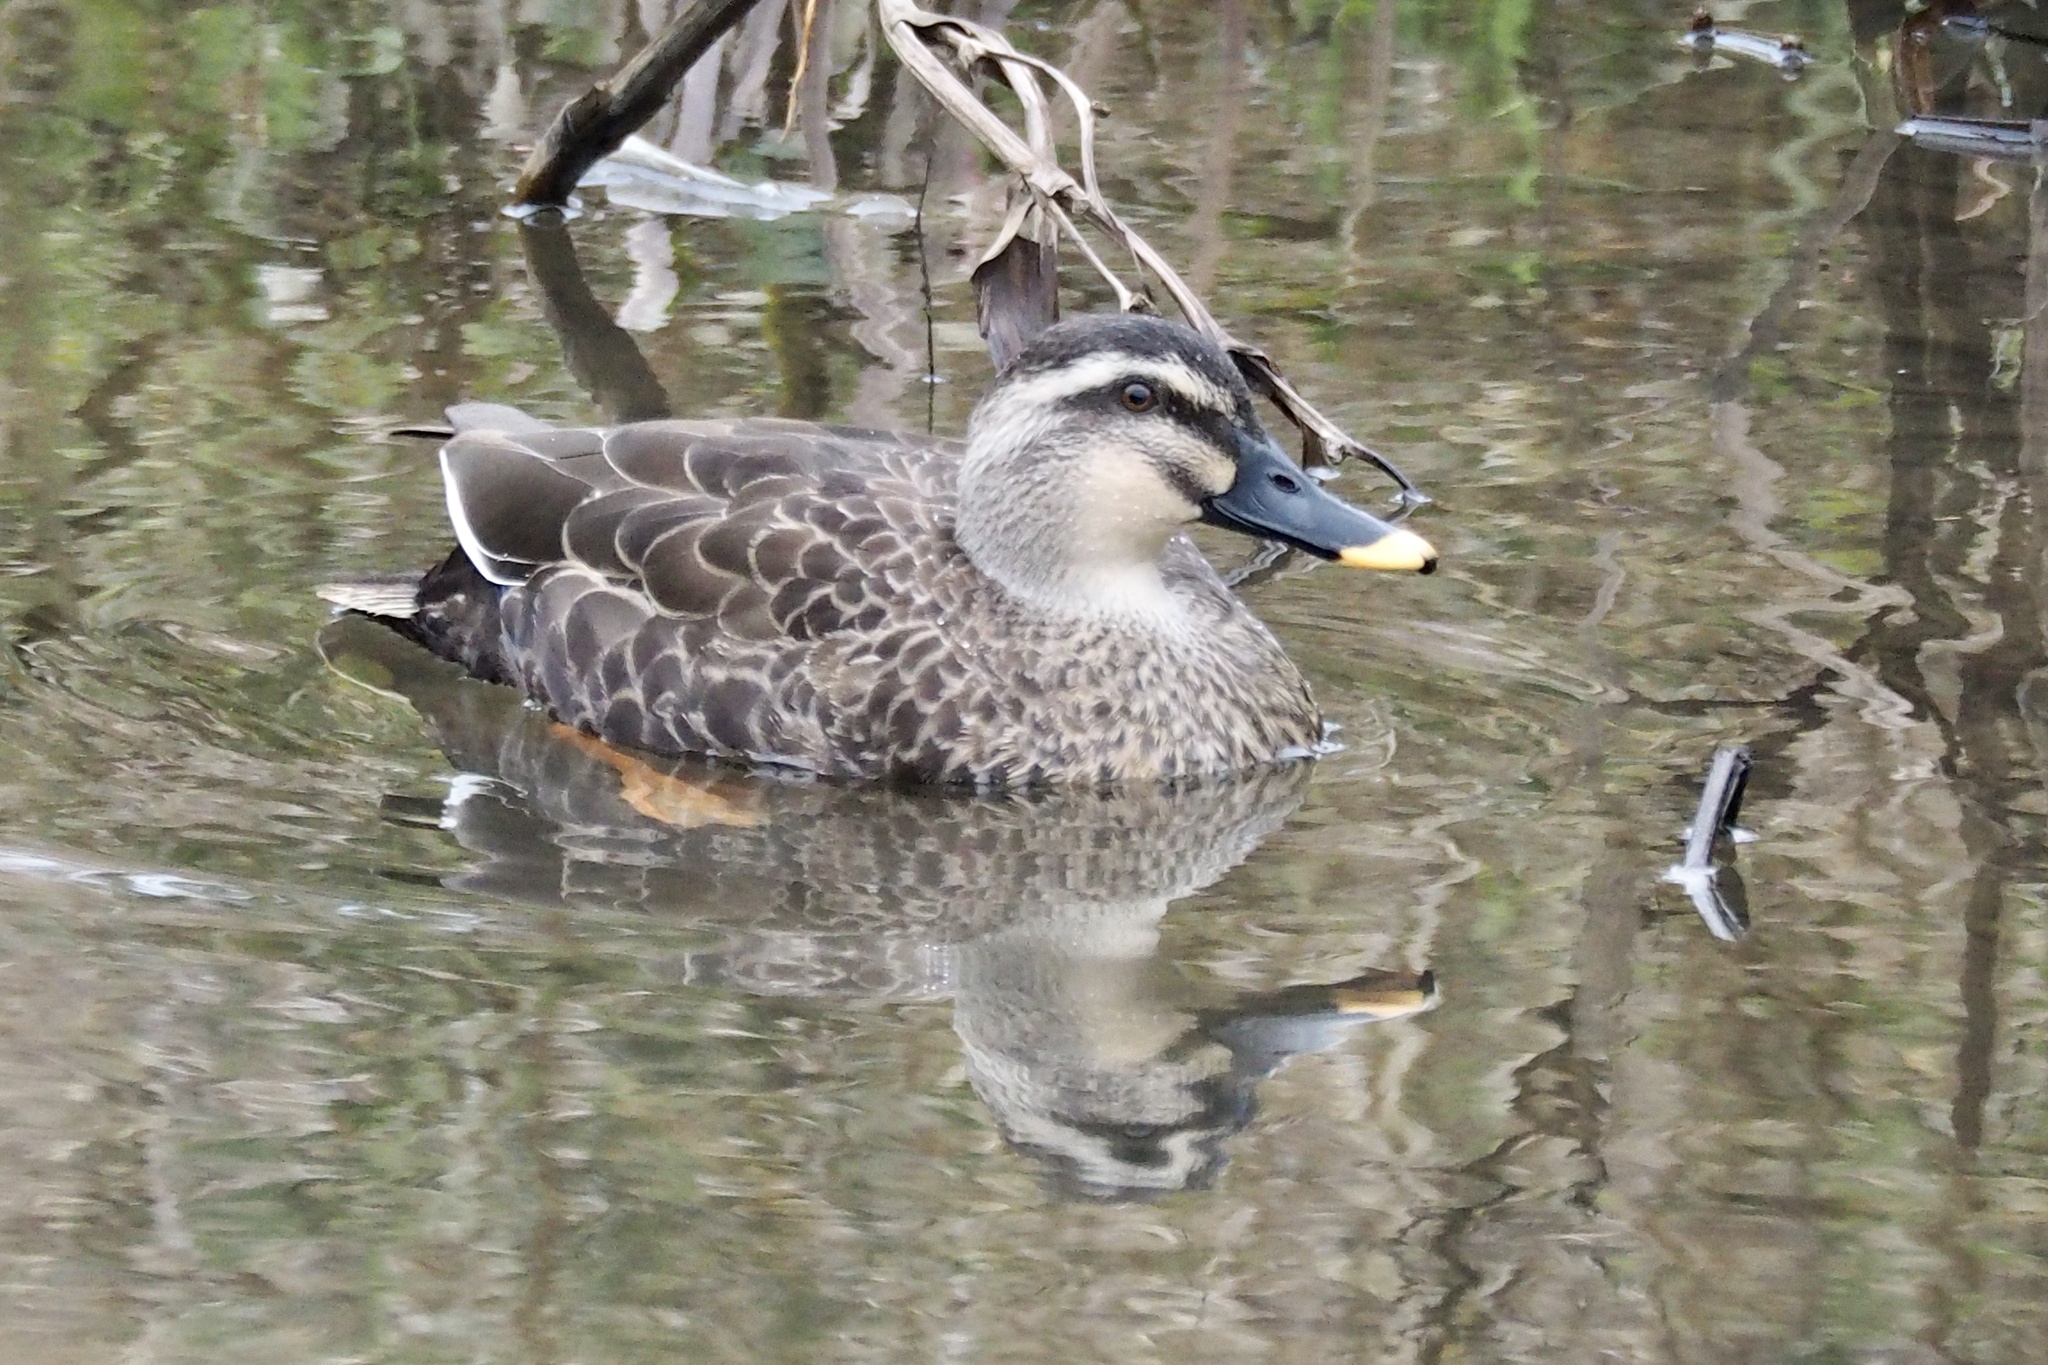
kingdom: Animalia
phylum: Chordata
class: Aves
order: Anseriformes
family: Anatidae
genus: Anas
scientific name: Anas zonorhyncha
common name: Eastern spot-billed duck
